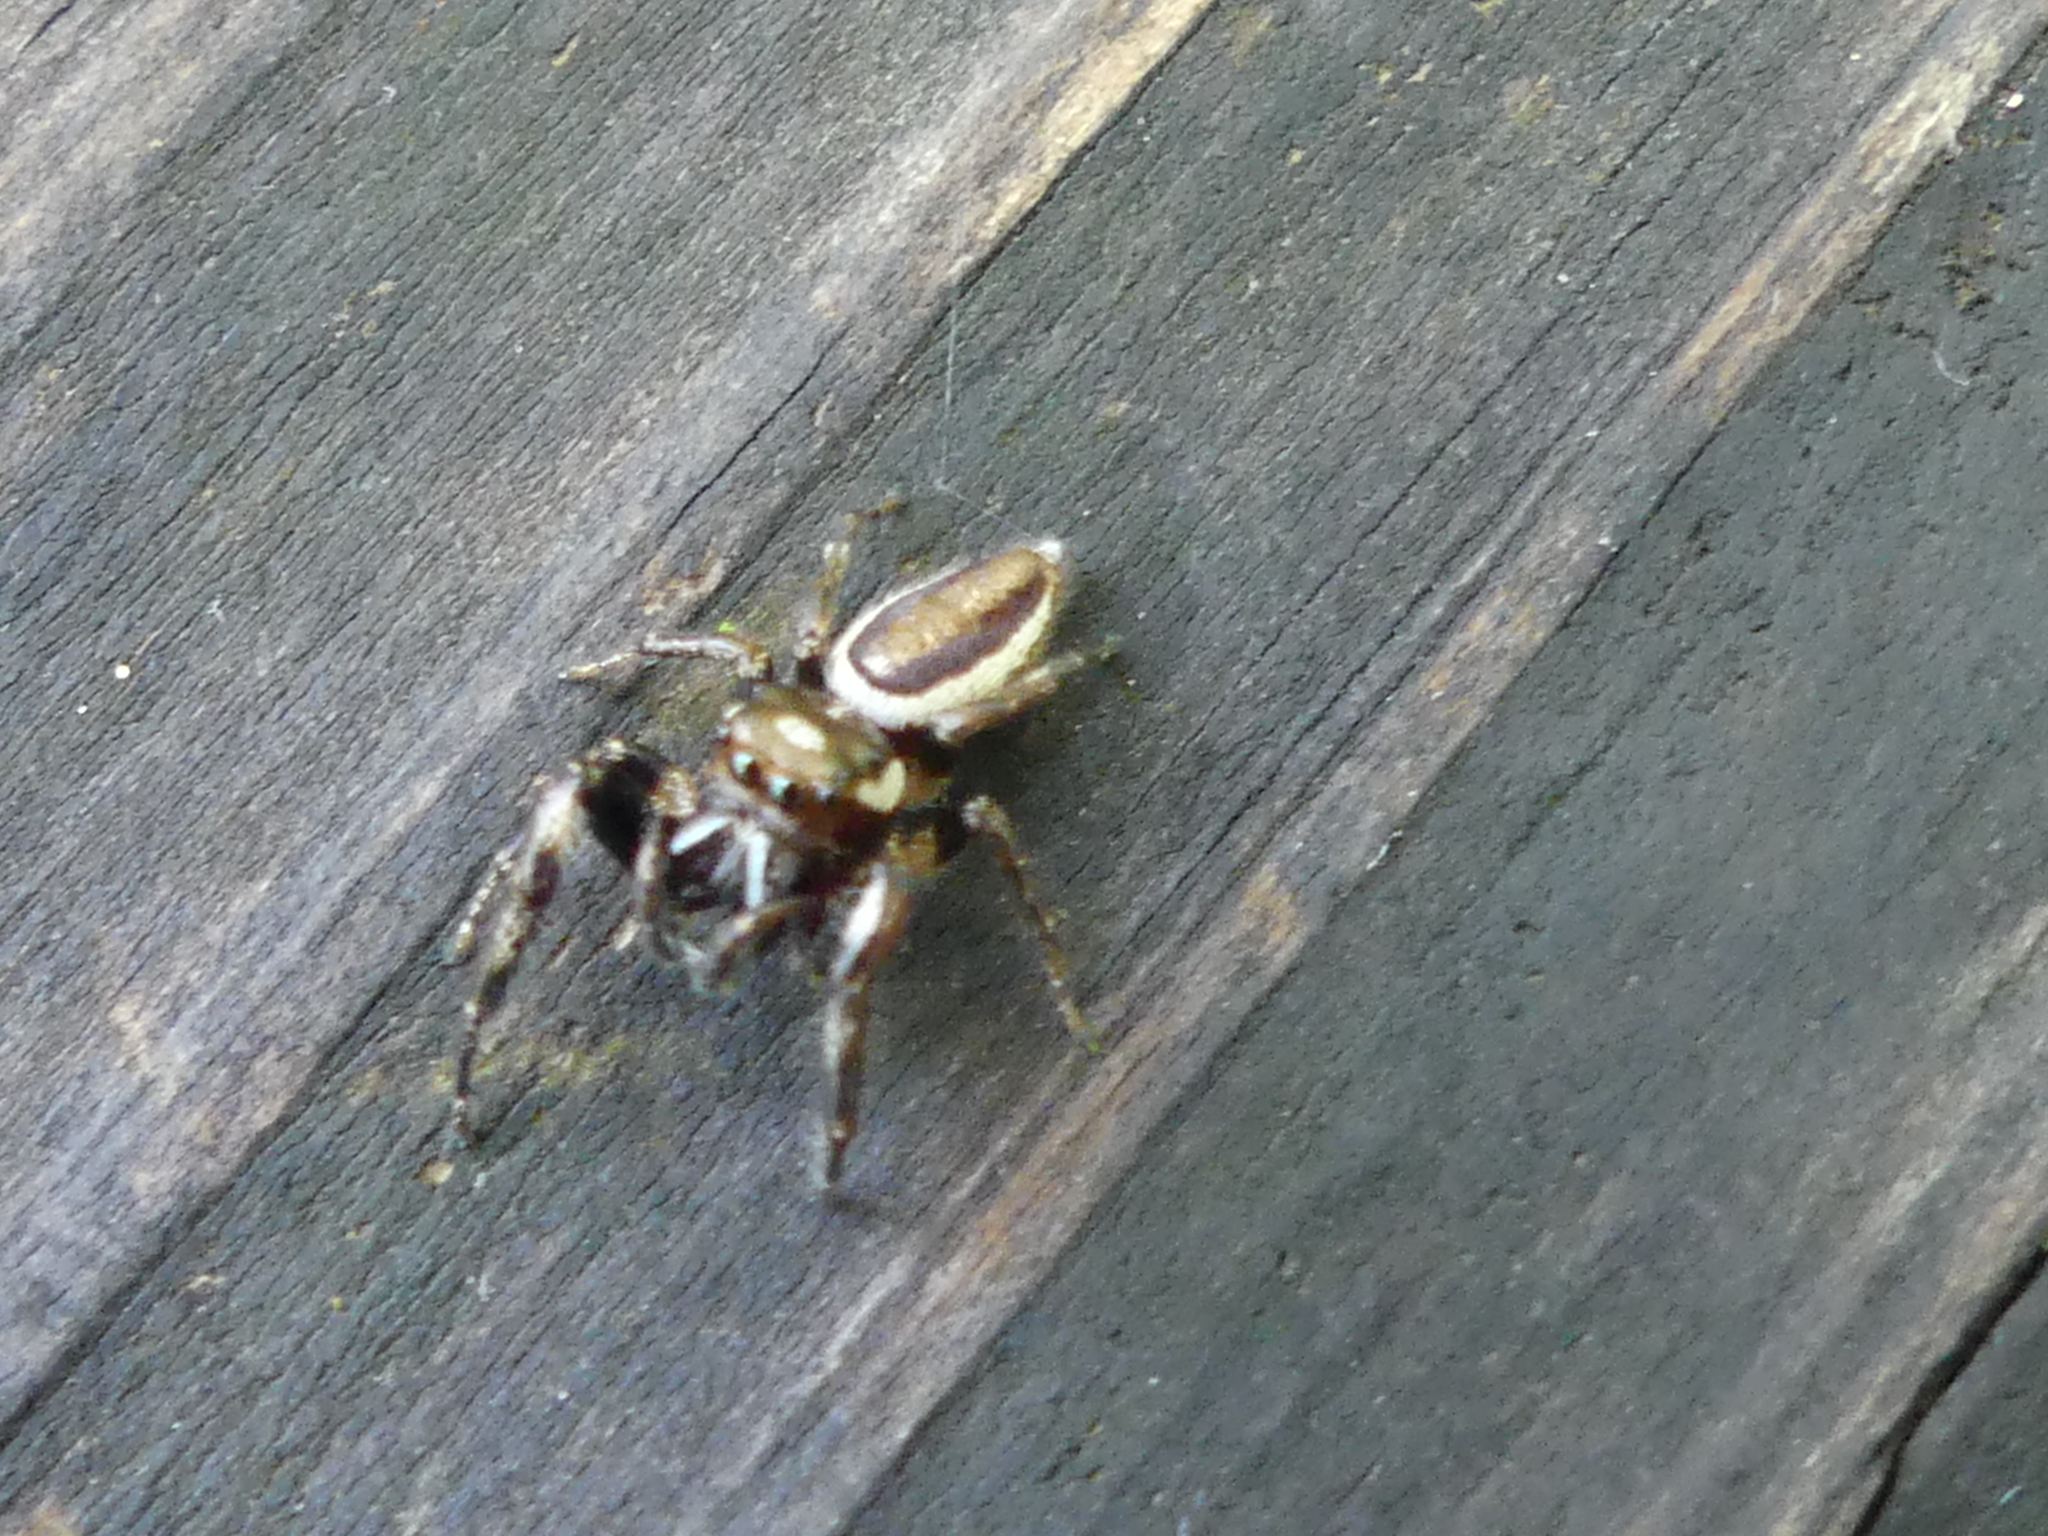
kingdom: Animalia
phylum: Arthropoda
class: Arachnida
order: Araneae
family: Salticidae
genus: Eris
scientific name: Eris militaris
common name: Bronze jumper
